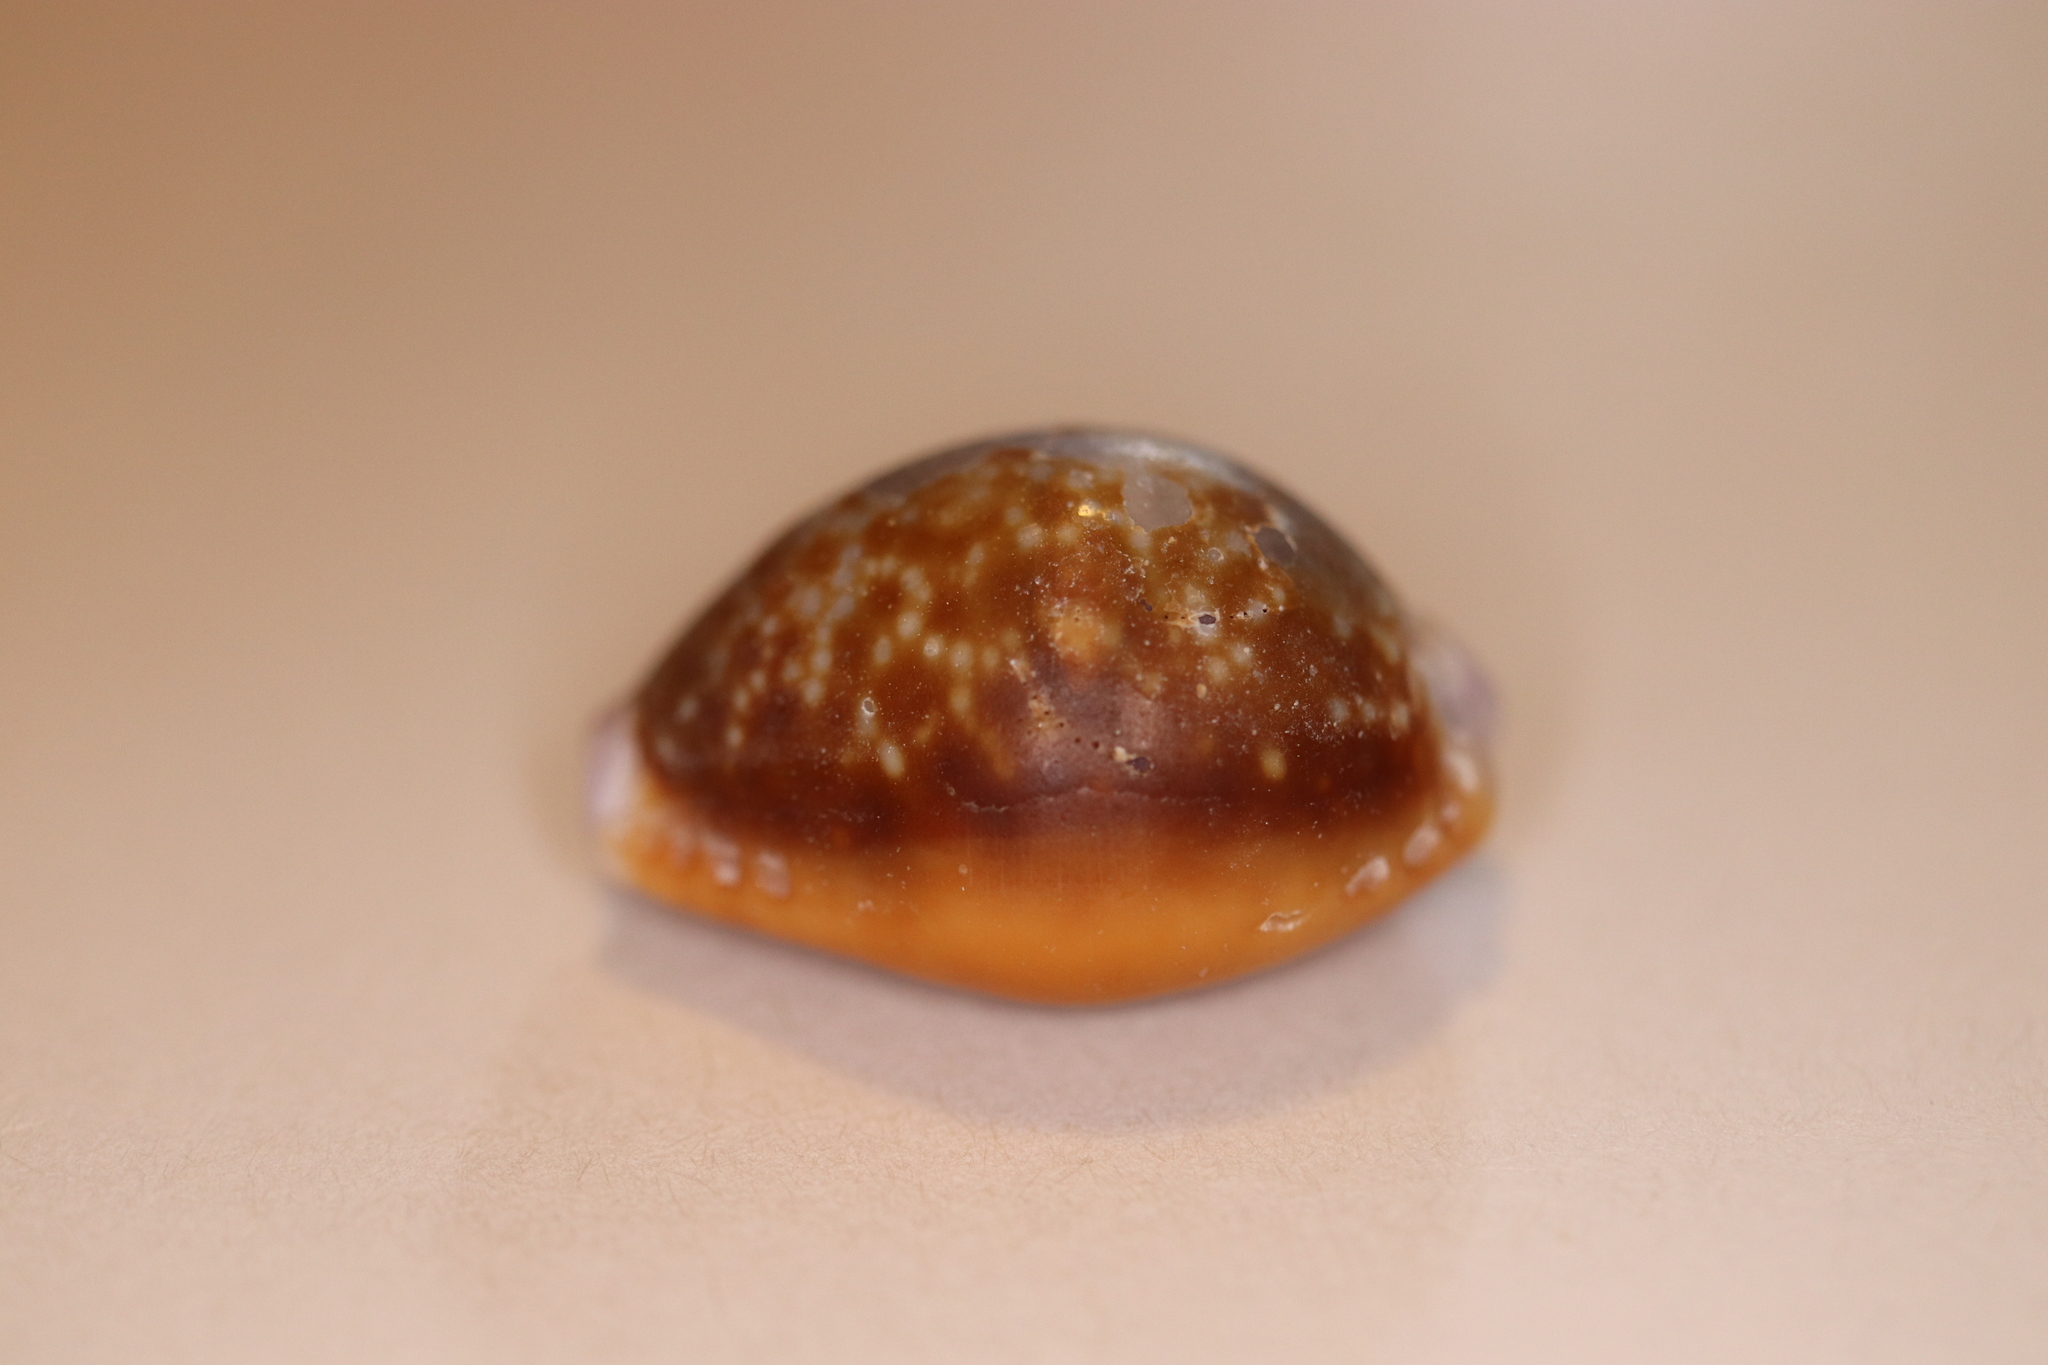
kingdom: Animalia
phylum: Mollusca
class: Gastropoda
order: Littorinimorpha
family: Cypraeidae
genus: Naria
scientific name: Naria helvola
